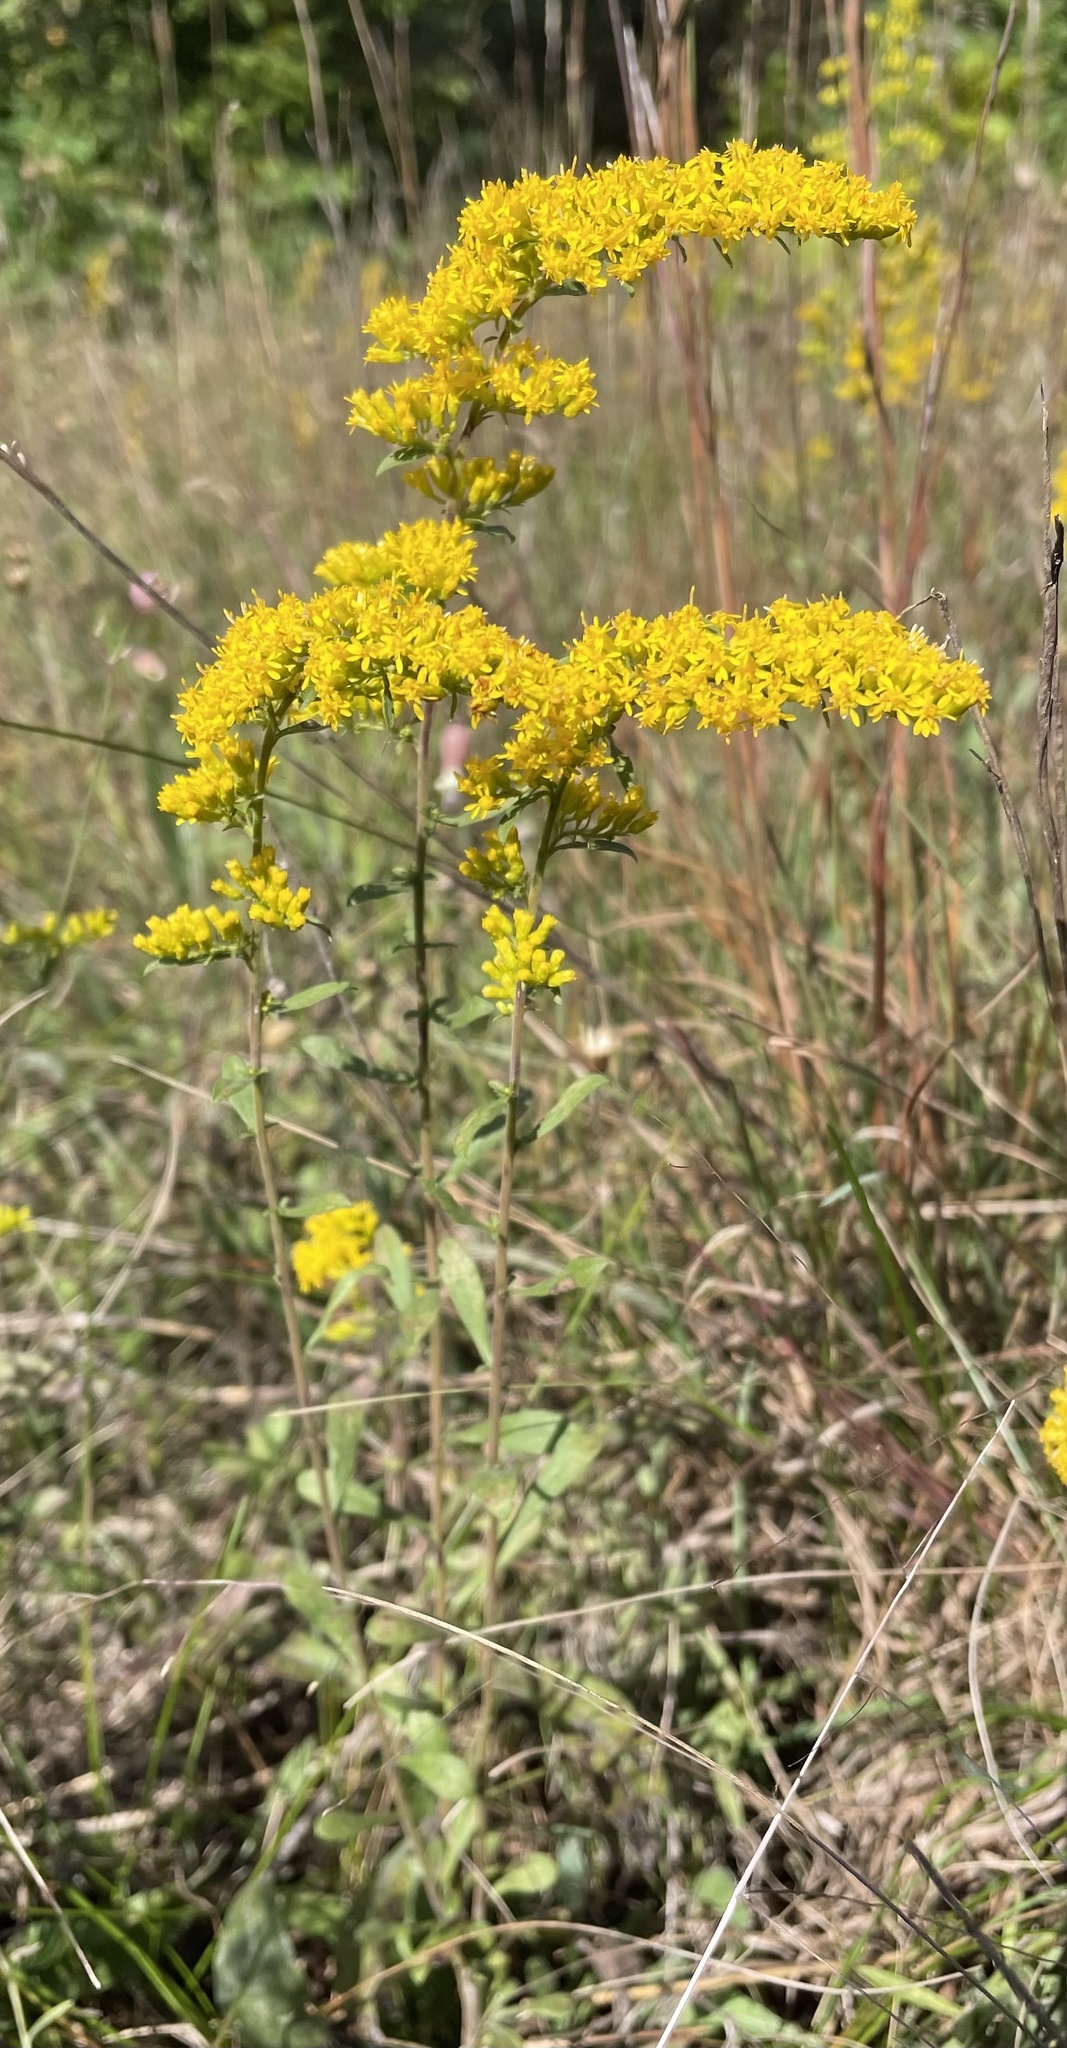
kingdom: Plantae
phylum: Tracheophyta
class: Magnoliopsida
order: Asterales
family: Asteraceae
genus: Solidago
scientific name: Solidago nemoralis
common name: Grey goldenrod
